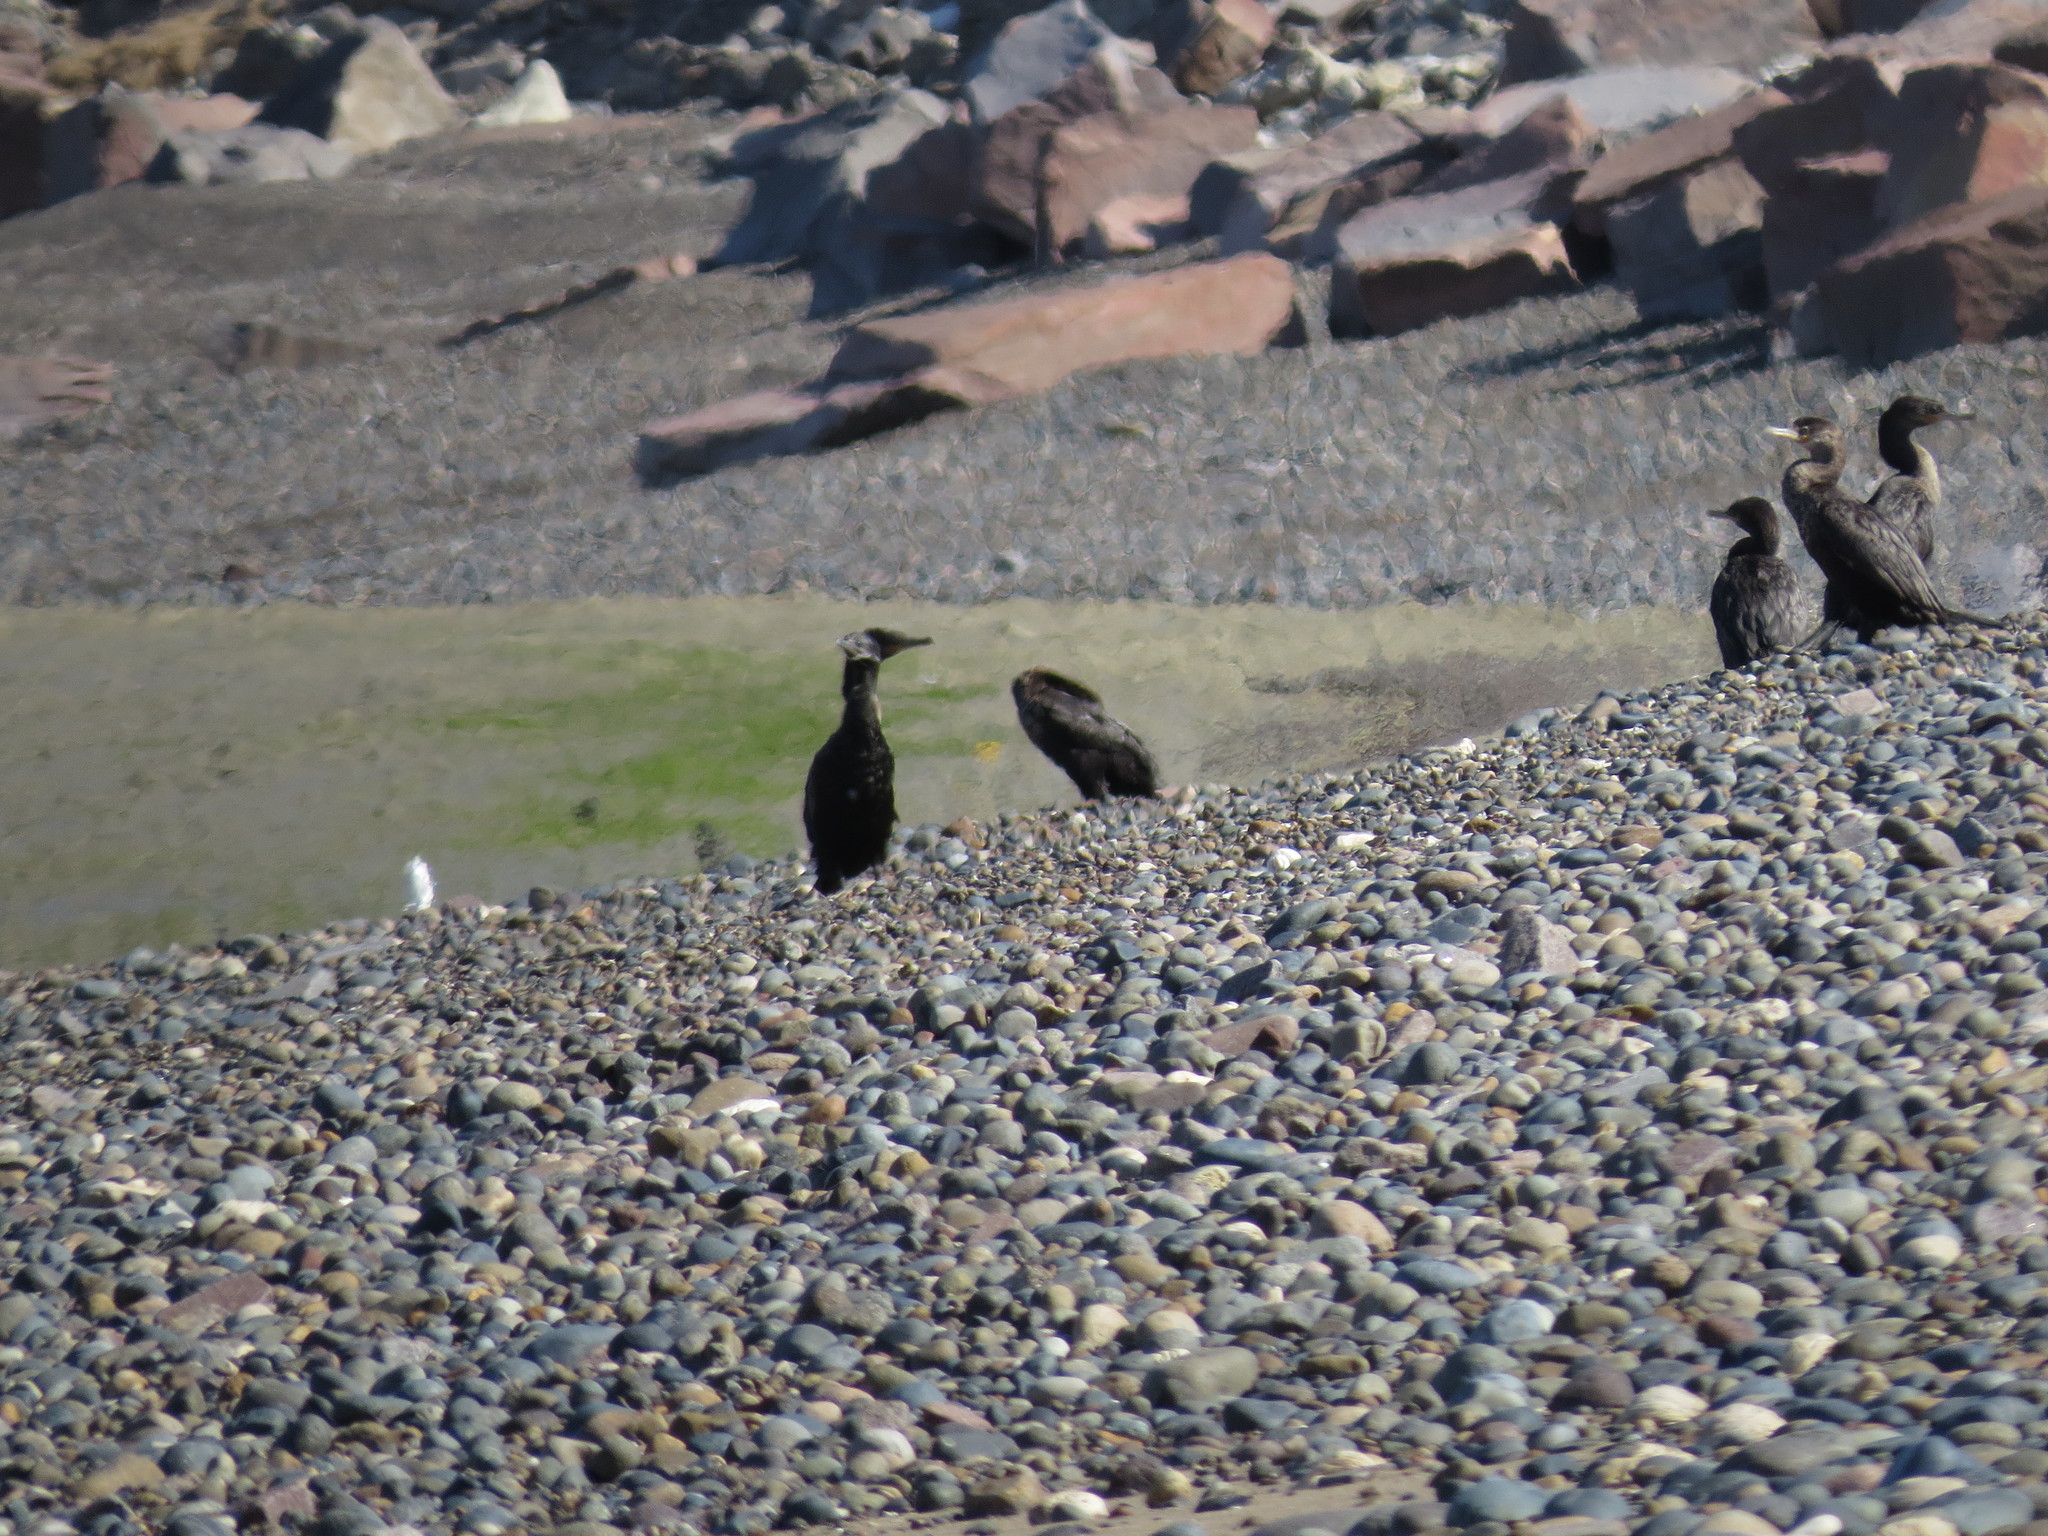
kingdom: Animalia
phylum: Chordata
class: Aves
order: Suliformes
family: Phalacrocoracidae
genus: Phalacrocorax
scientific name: Phalacrocorax brasilianus
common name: Neotropic cormorant
